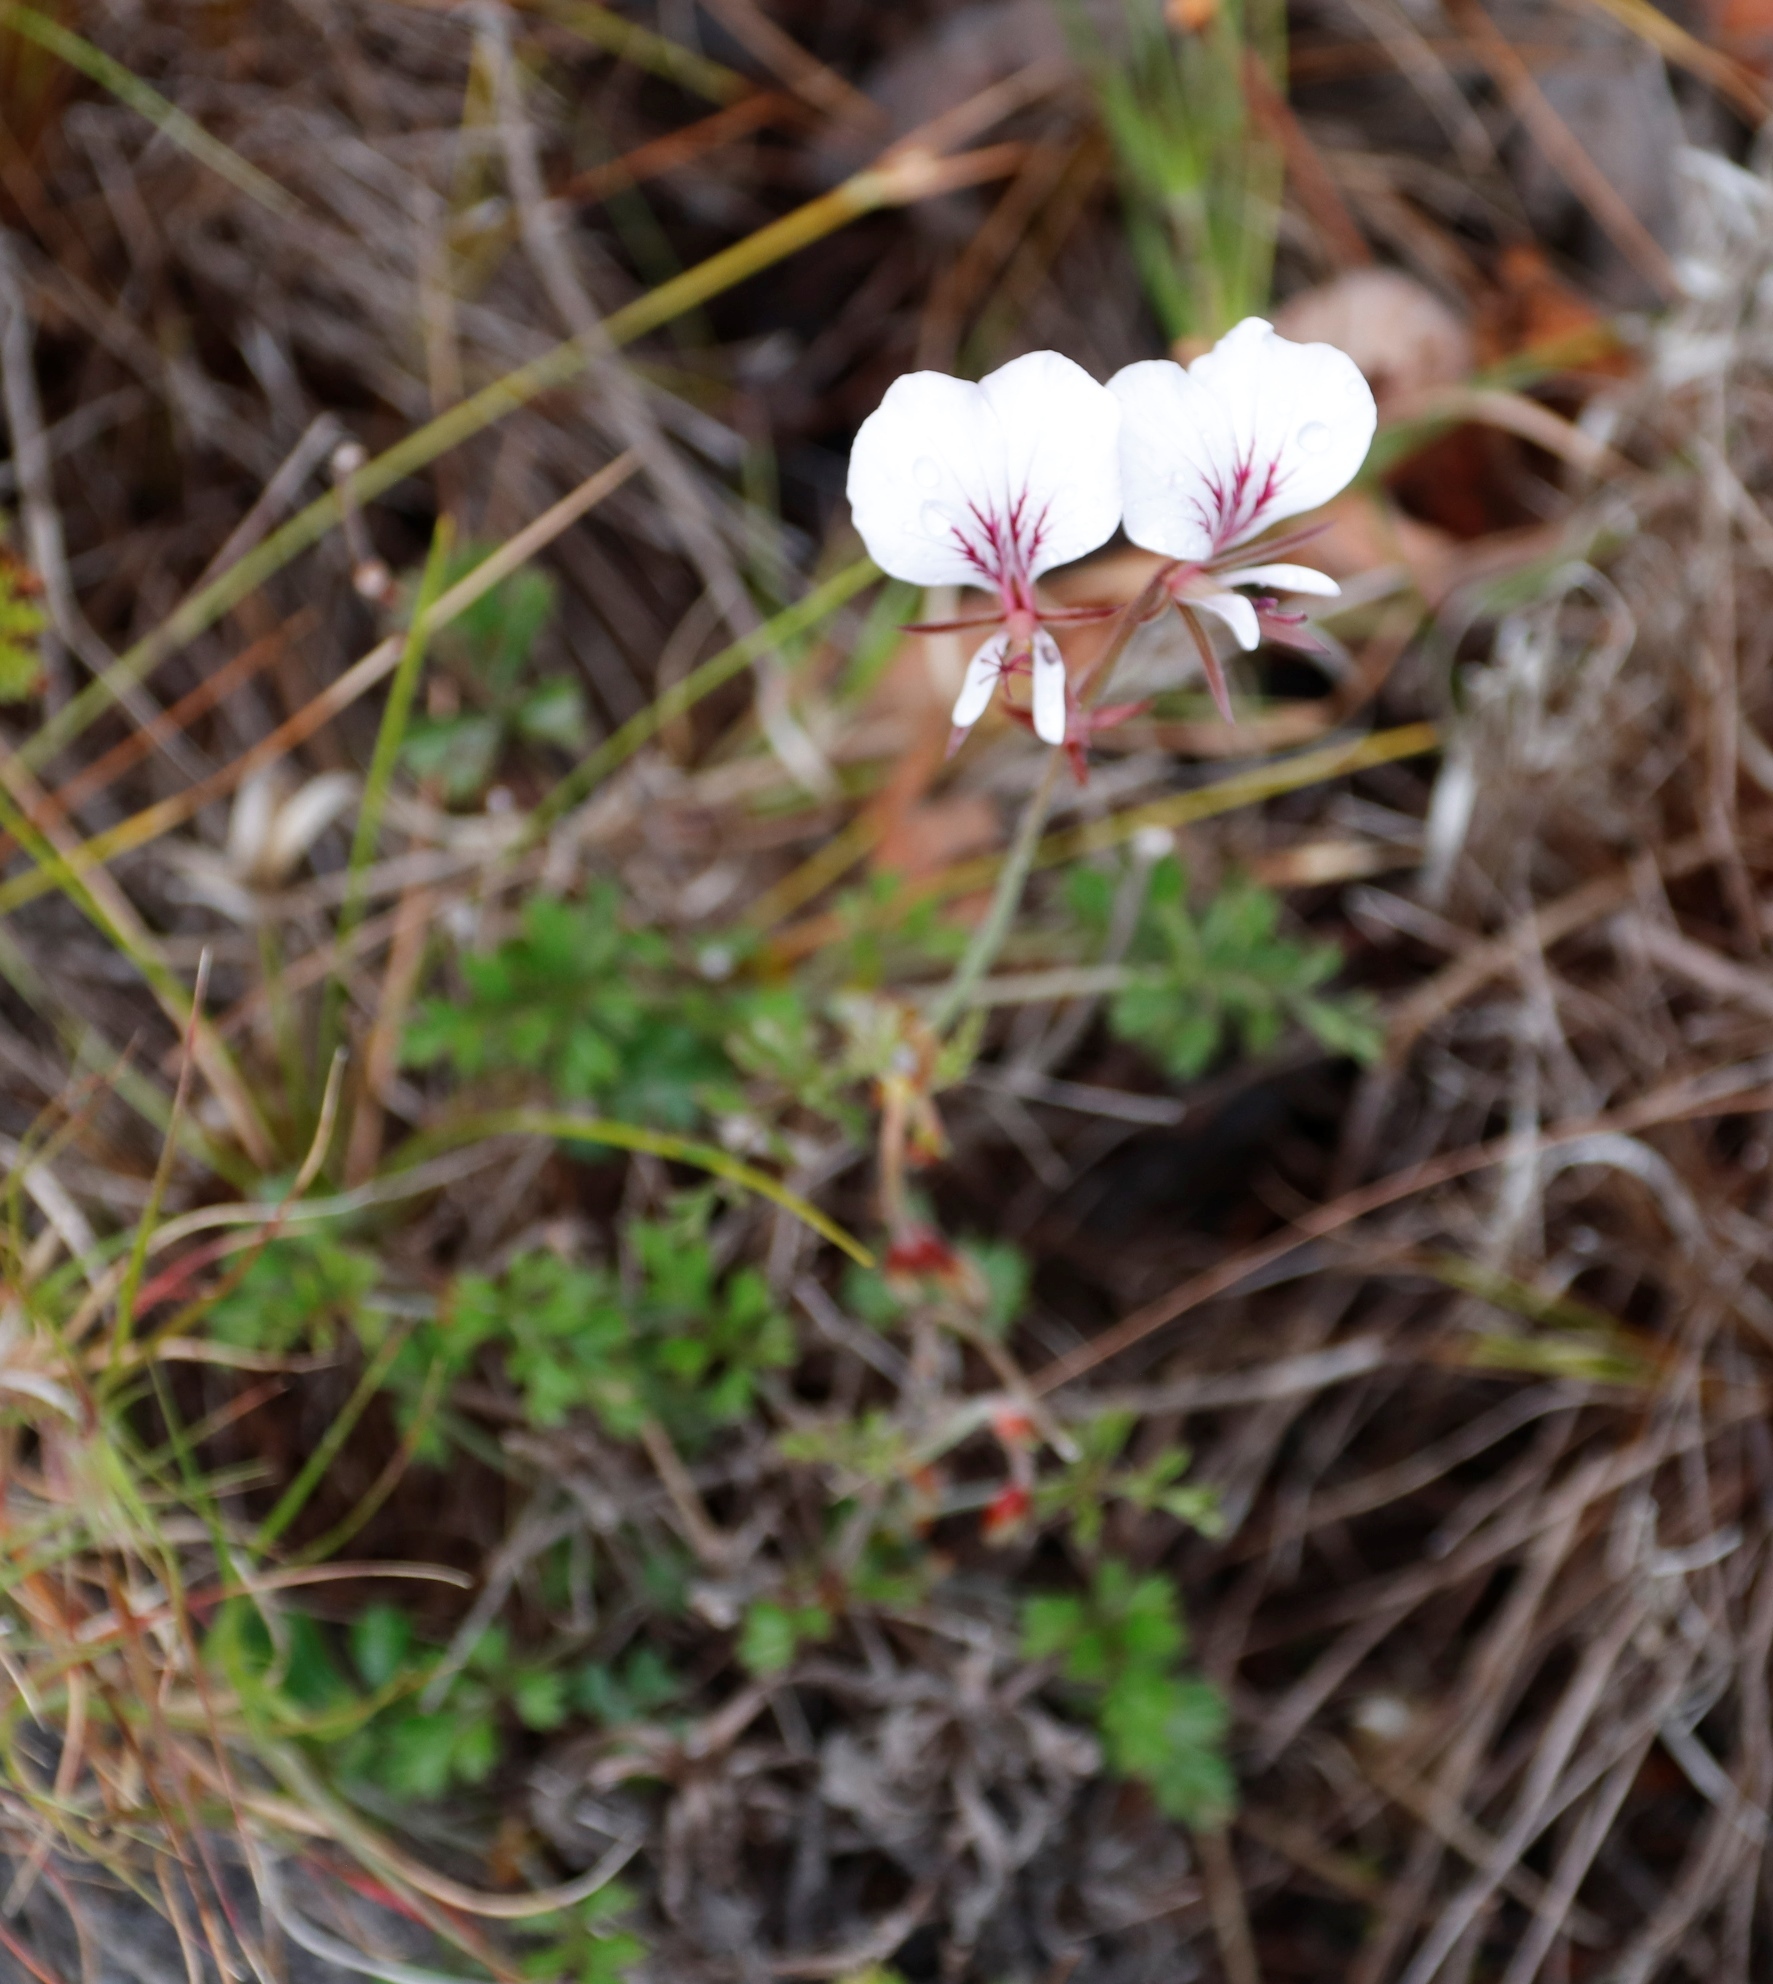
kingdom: Plantae
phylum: Tracheophyta
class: Magnoliopsida
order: Geraniales
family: Geraniaceae
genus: Pelargonium
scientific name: Pelargonium longicaule
